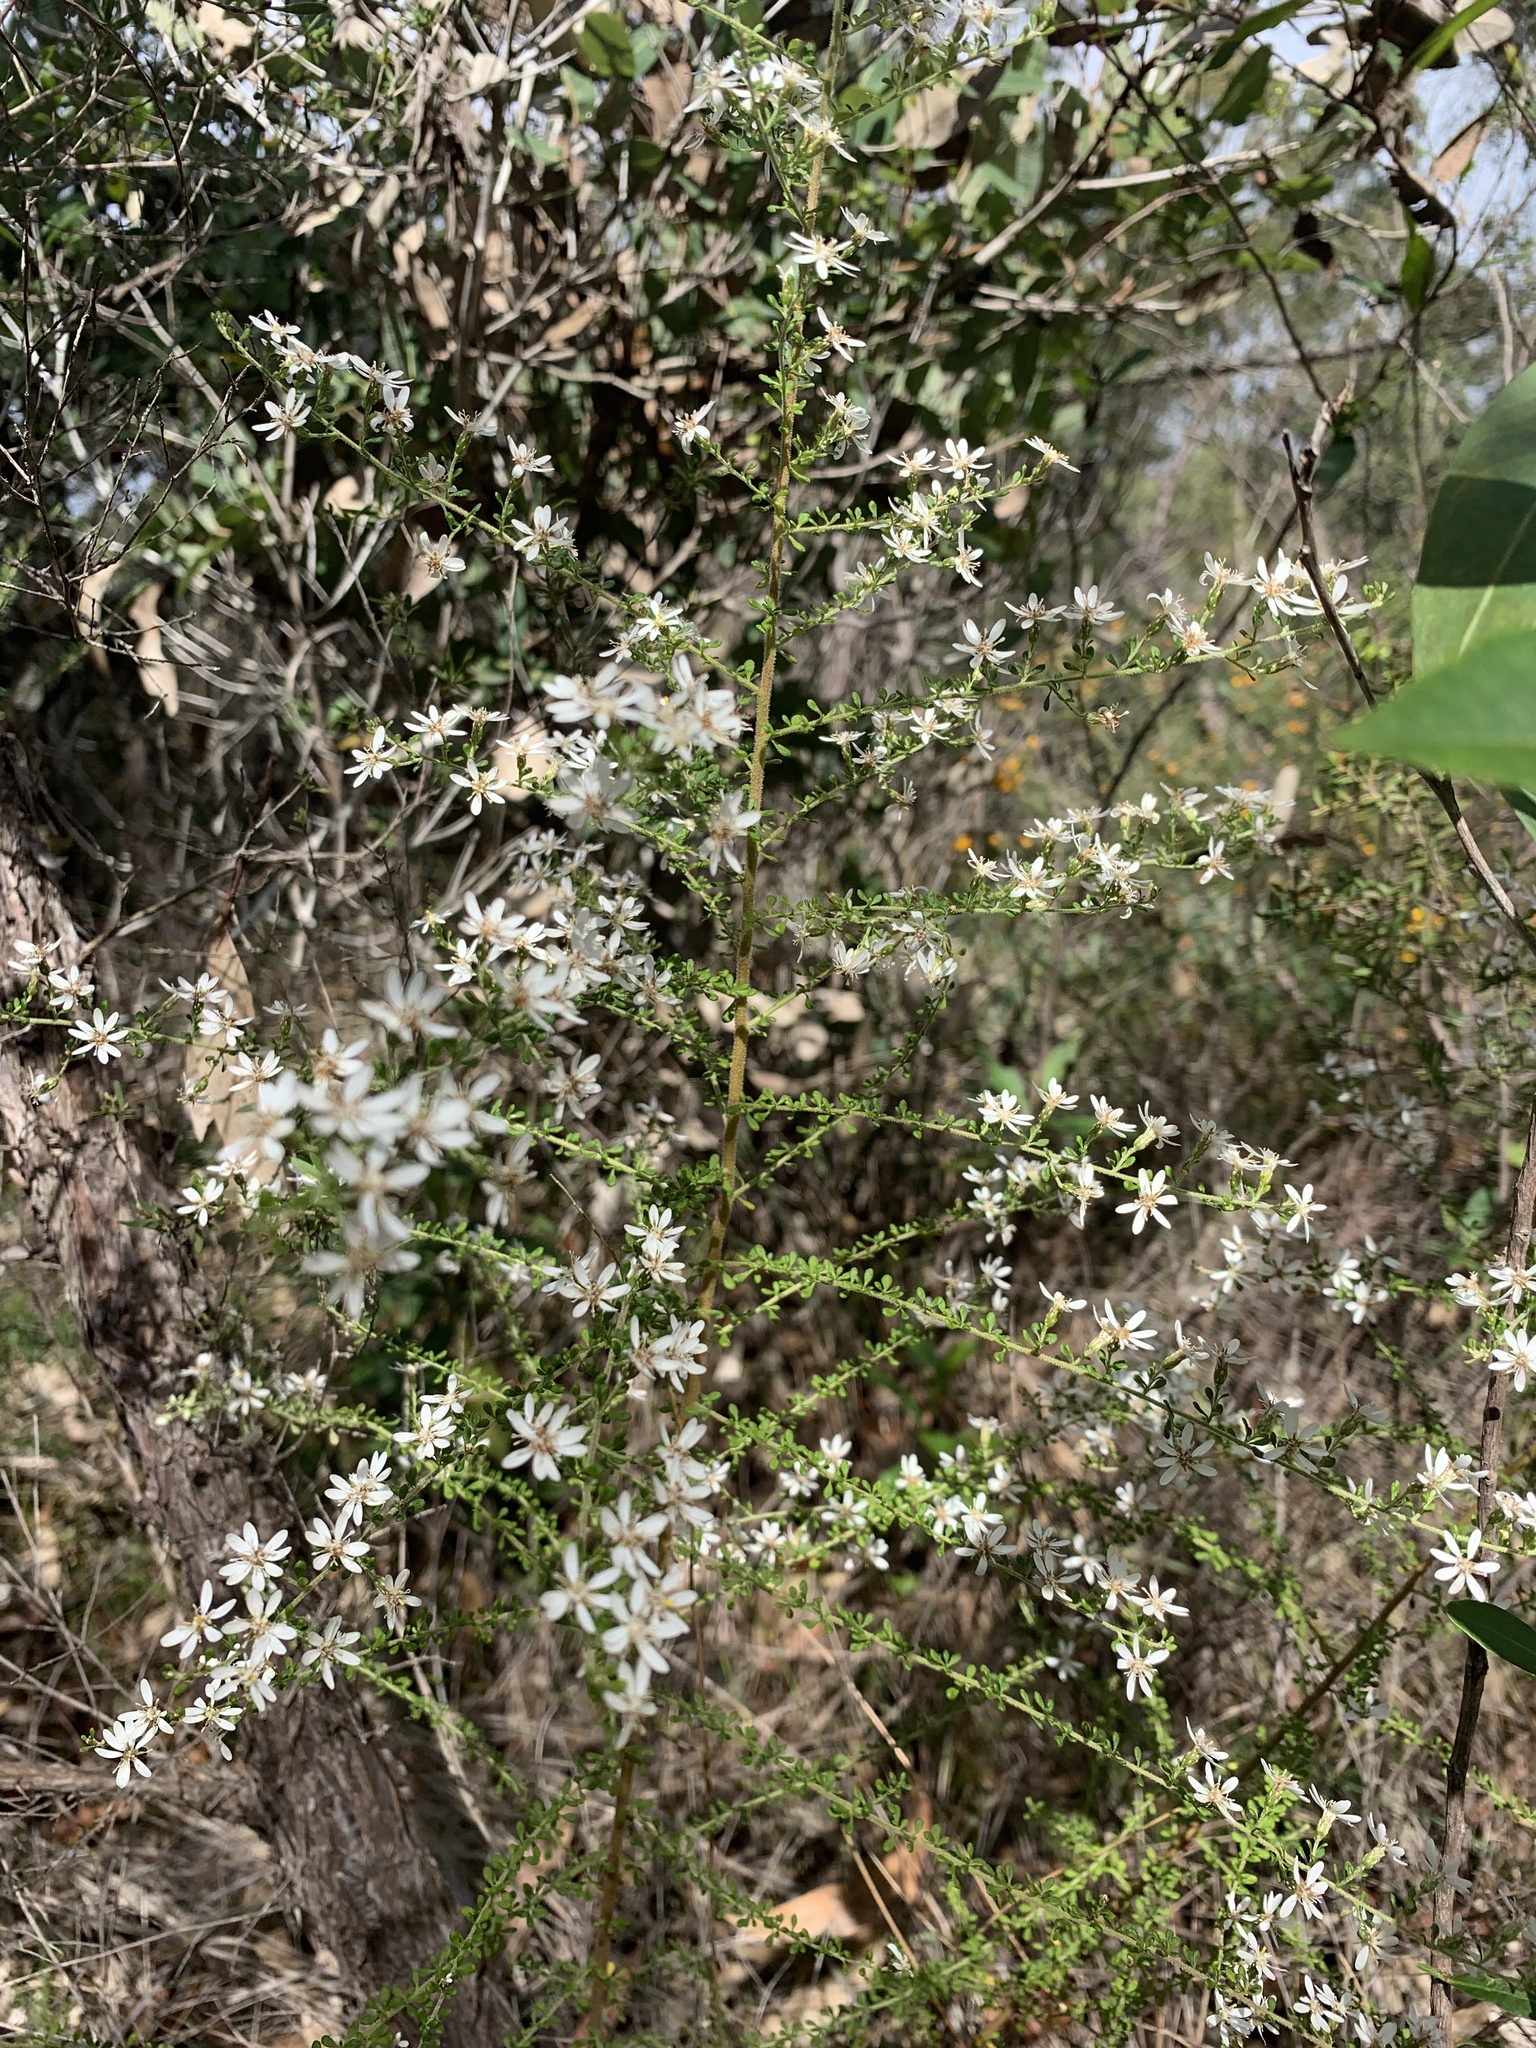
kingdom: Plantae
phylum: Tracheophyta
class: Magnoliopsida
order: Asterales
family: Asteraceae
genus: Olearia
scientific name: Olearia microphylla
